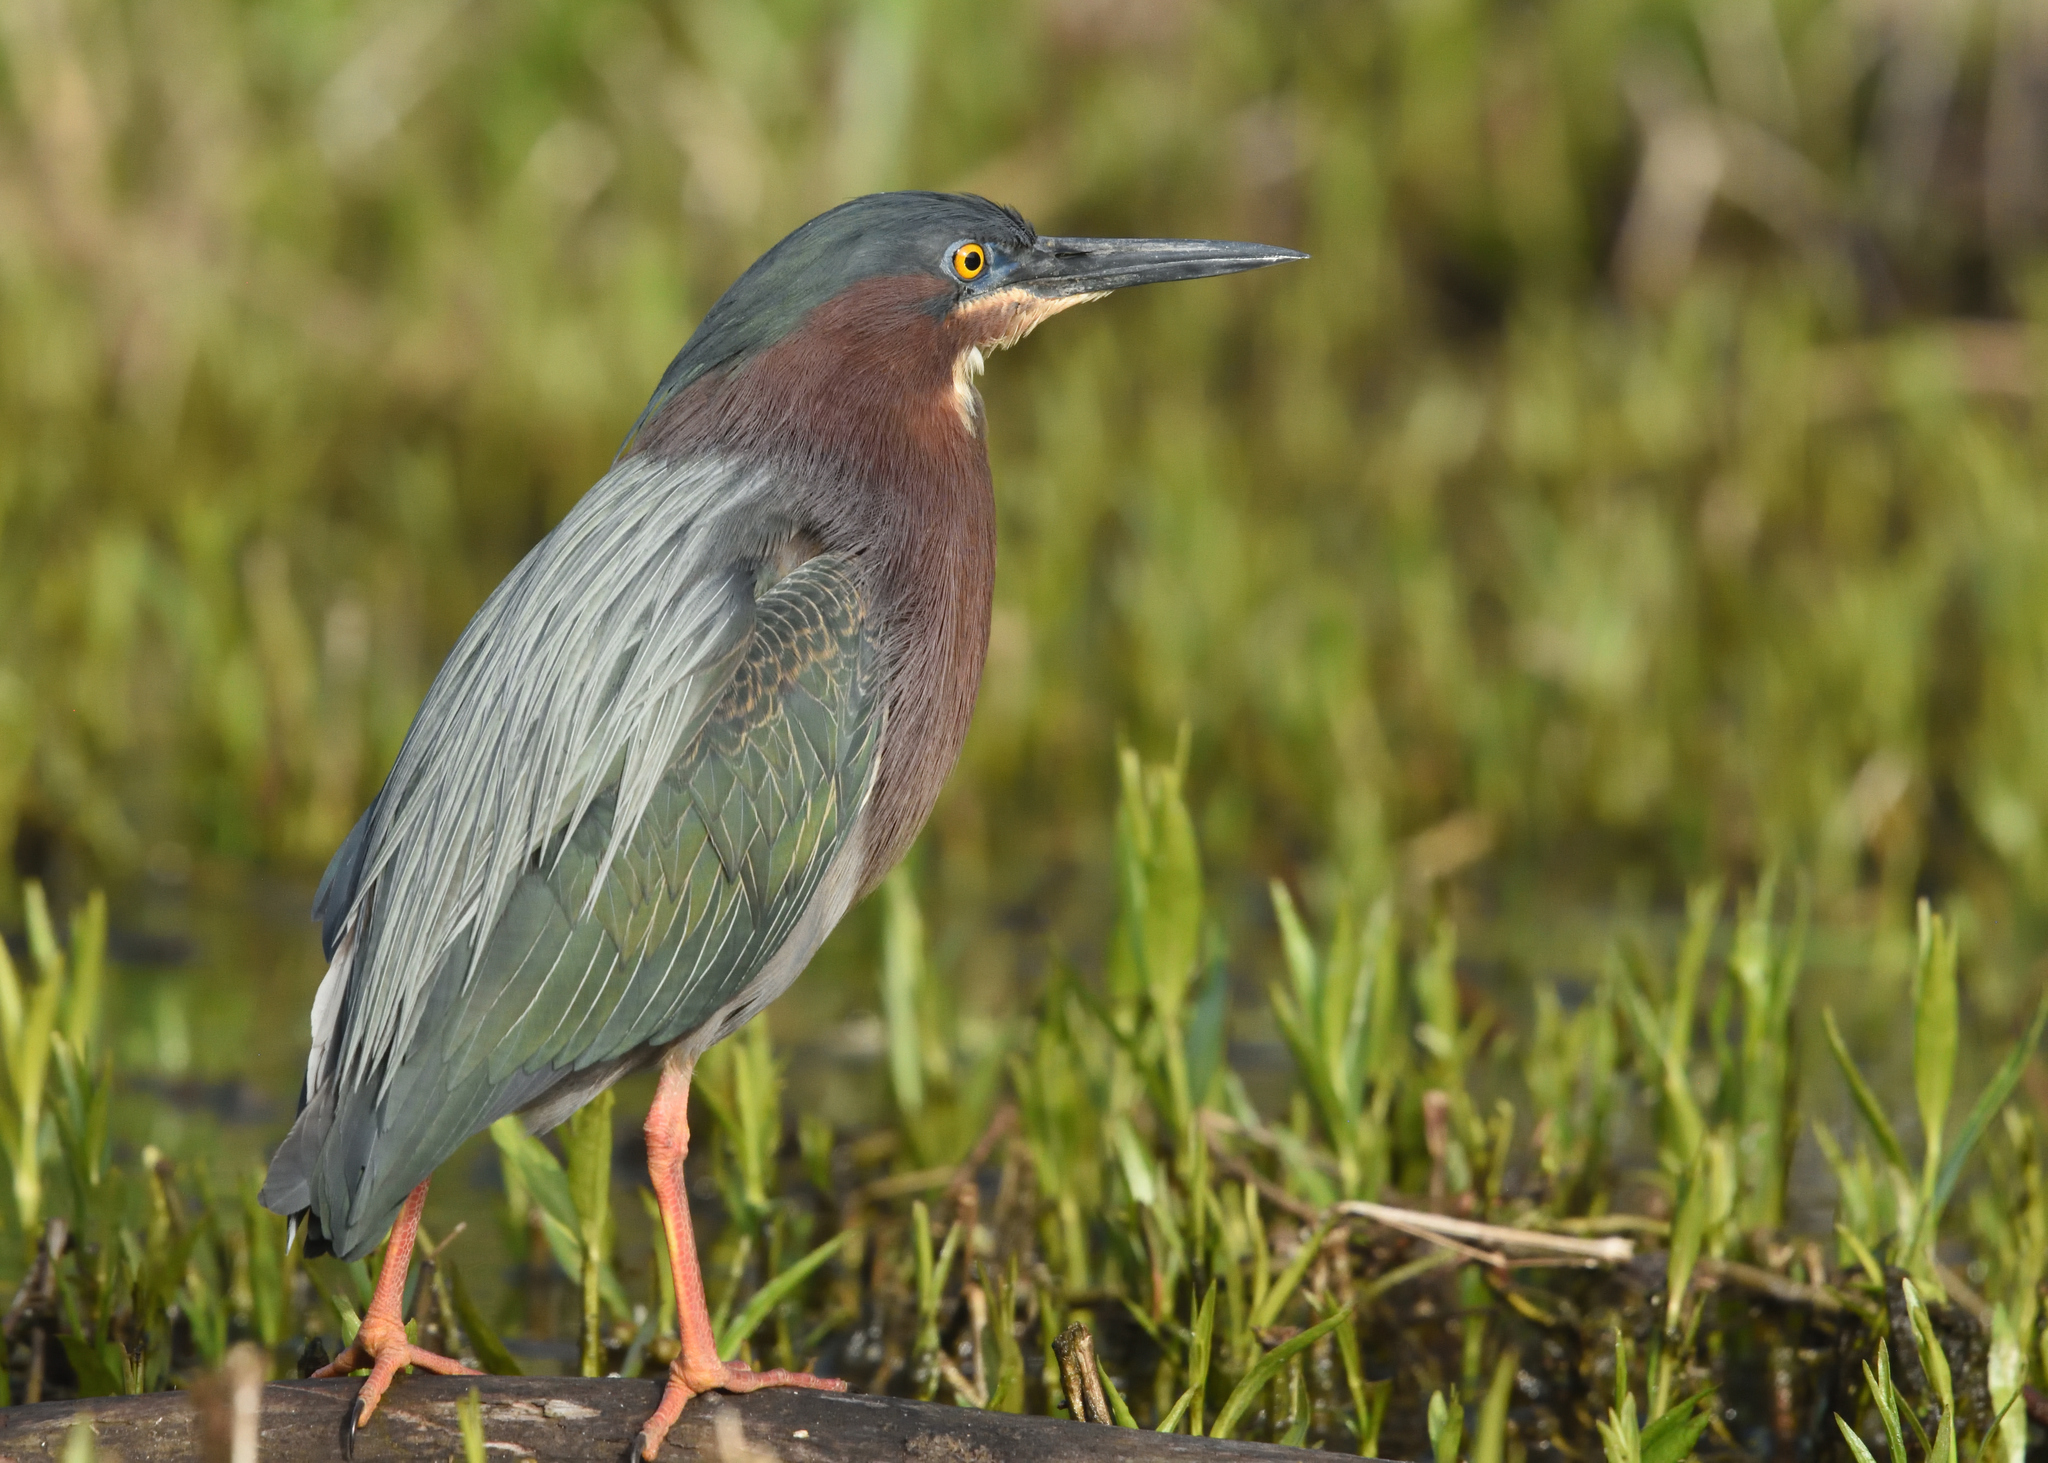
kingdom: Animalia
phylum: Chordata
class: Aves
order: Pelecaniformes
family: Ardeidae
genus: Butorides
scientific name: Butorides virescens
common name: Green heron
